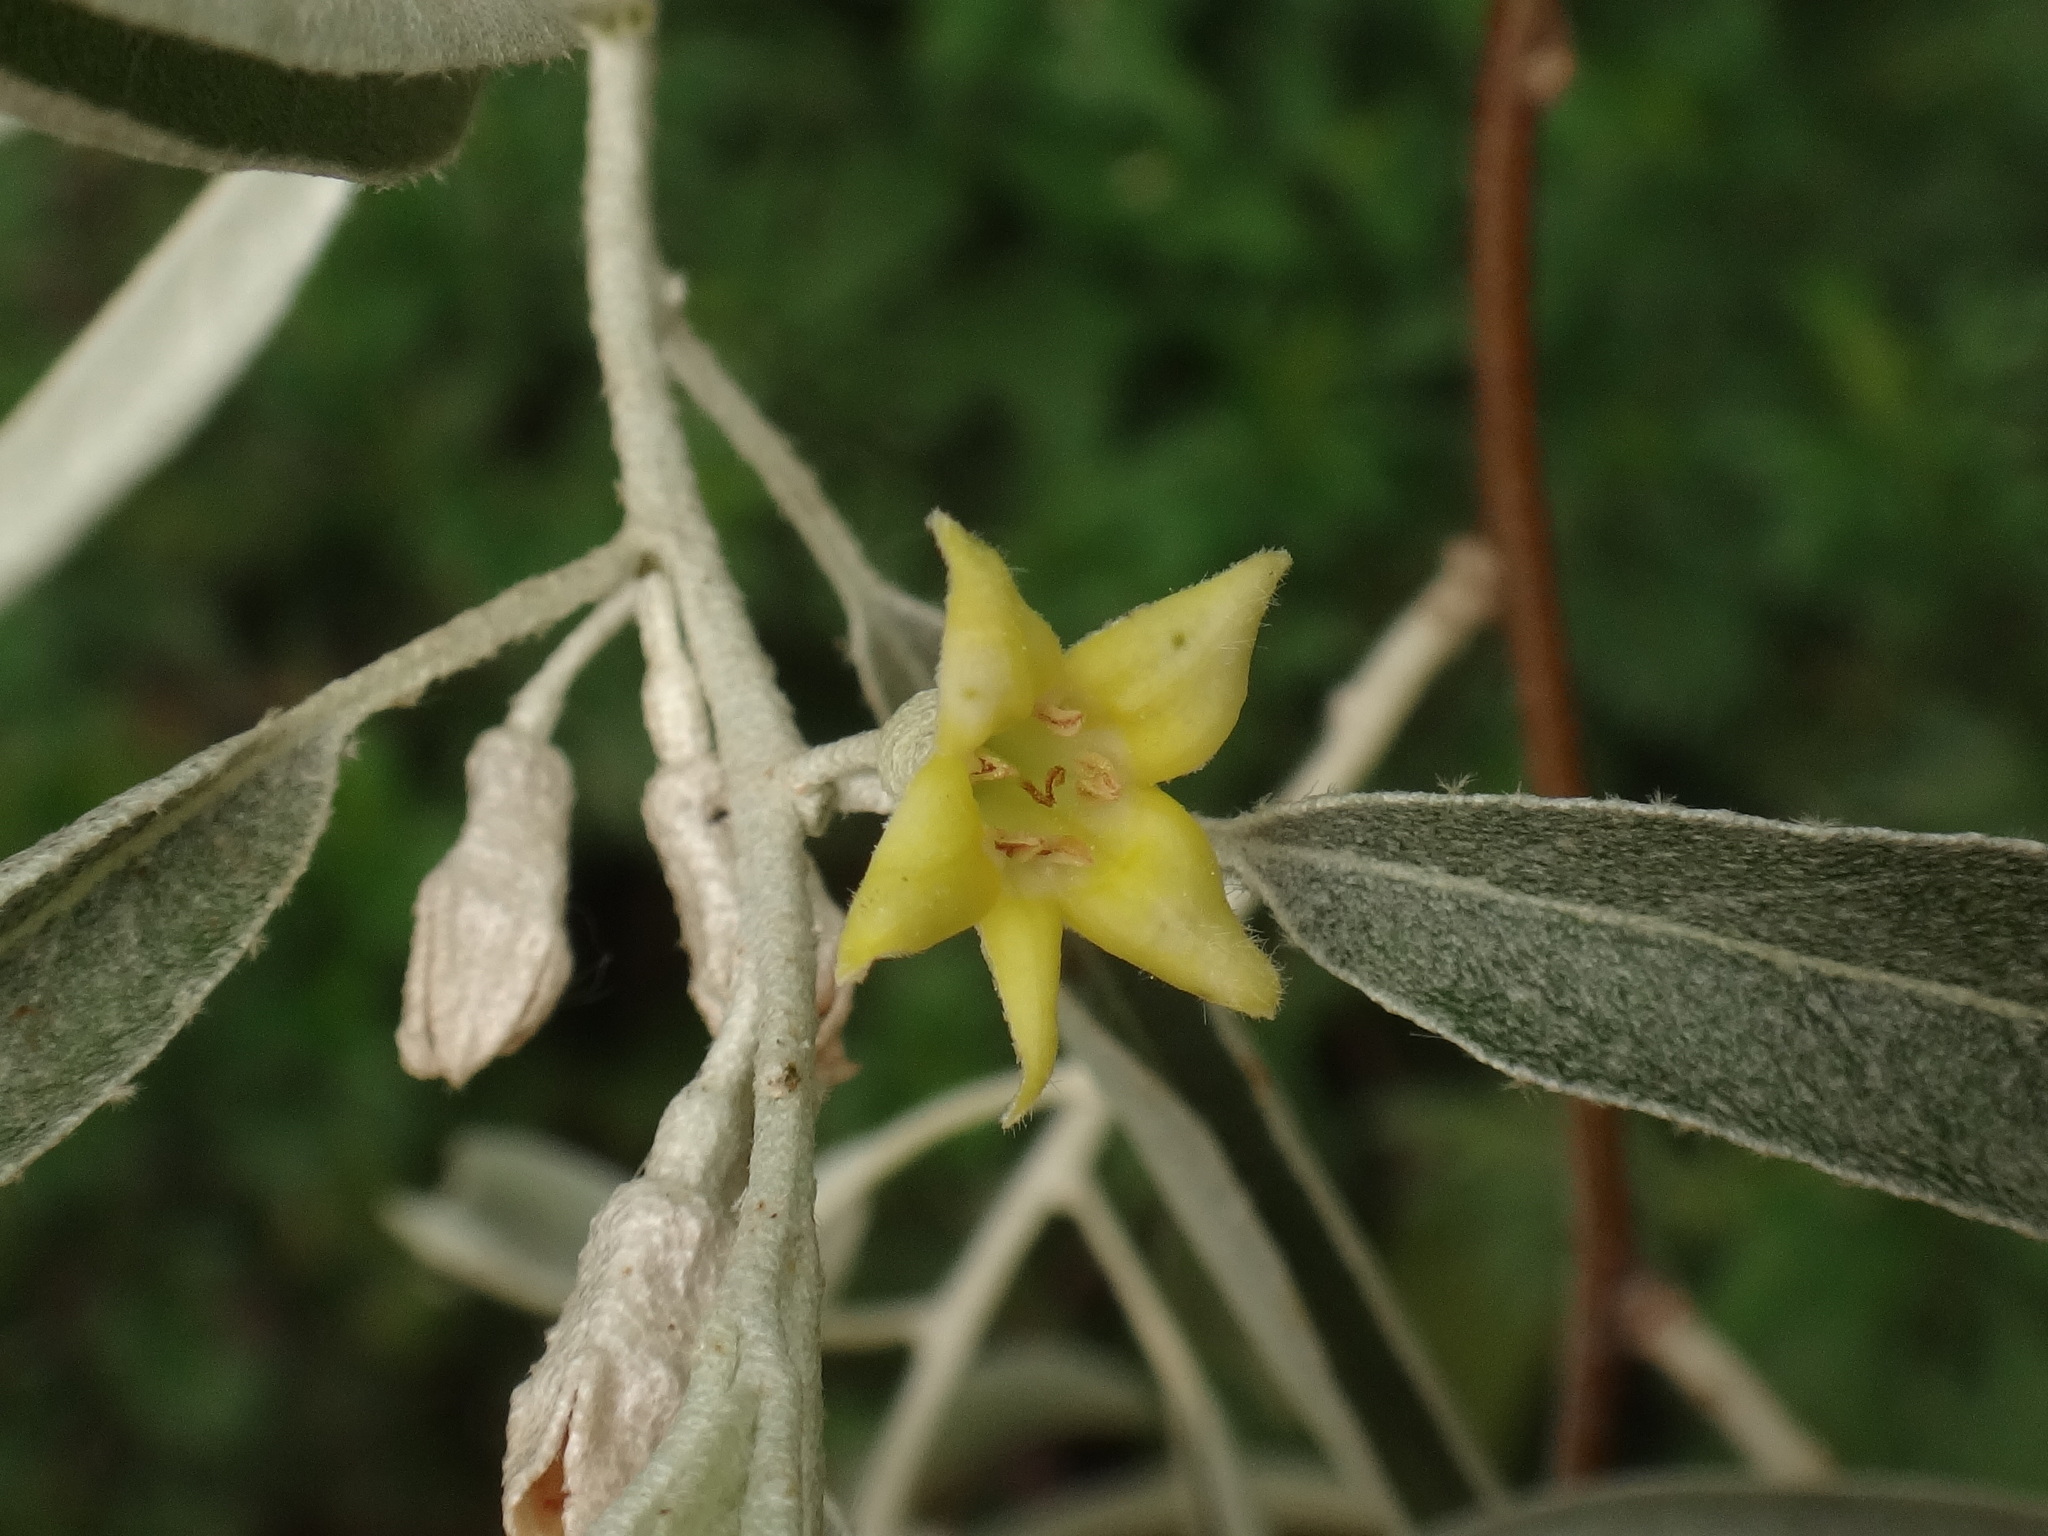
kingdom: Plantae
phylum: Tracheophyta
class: Magnoliopsida
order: Rosales
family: Elaeagnaceae
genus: Elaeagnus
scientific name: Elaeagnus angustifolia
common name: Russian olive
